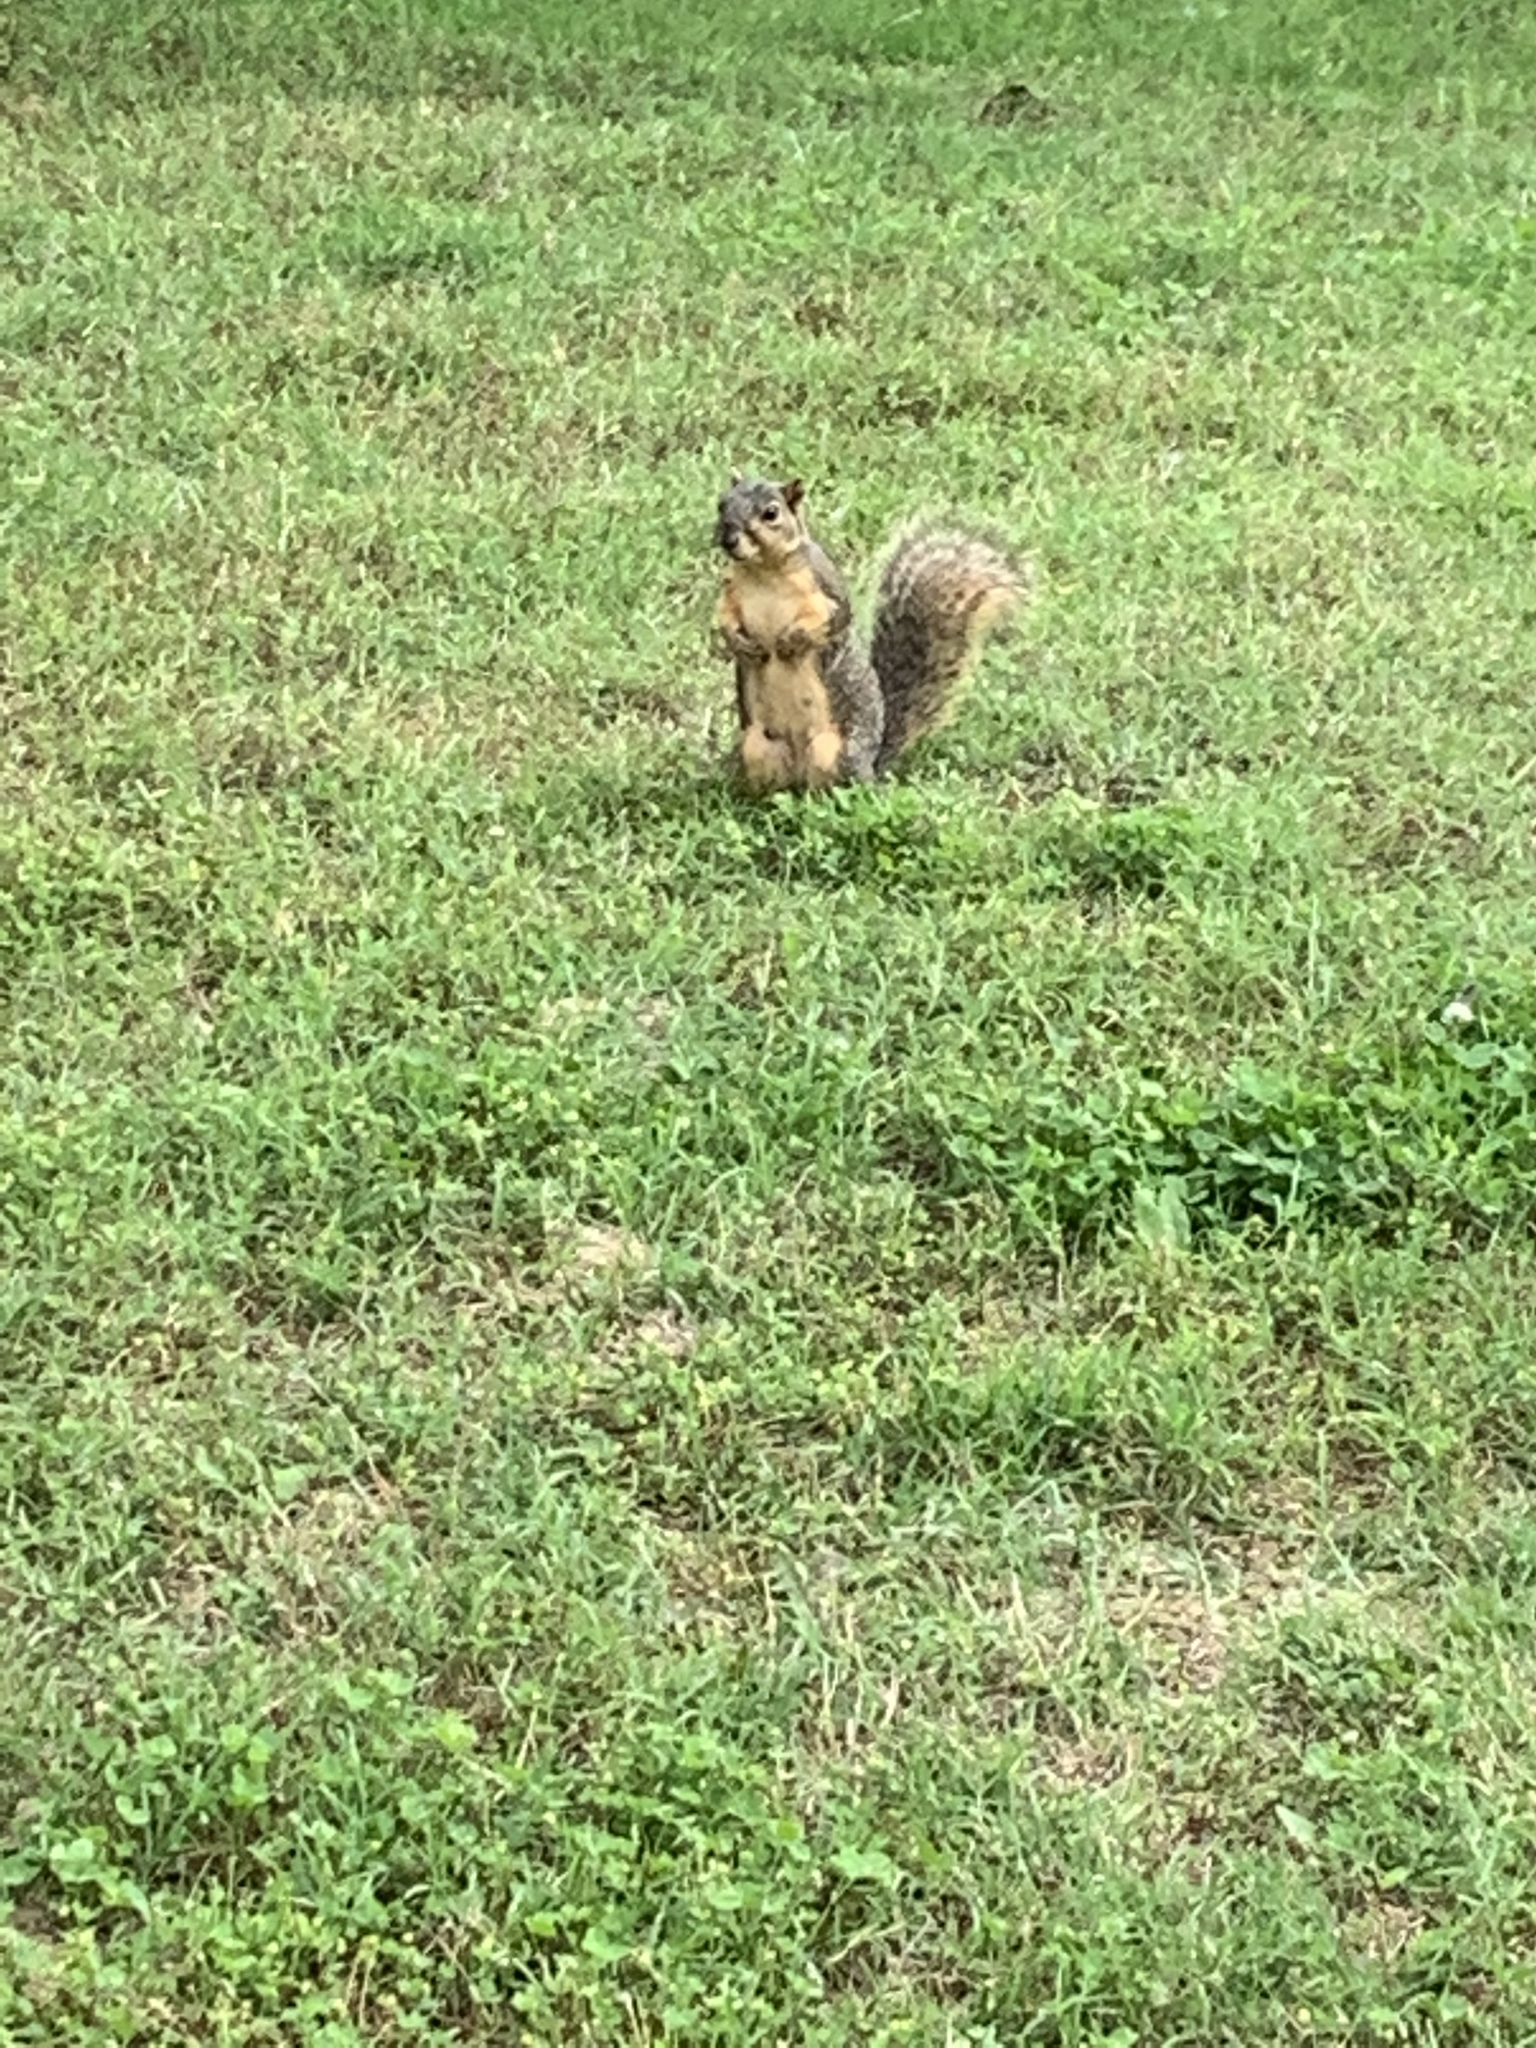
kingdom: Animalia
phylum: Chordata
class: Mammalia
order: Rodentia
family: Sciuridae
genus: Sciurus
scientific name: Sciurus niger
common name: Fox squirrel
